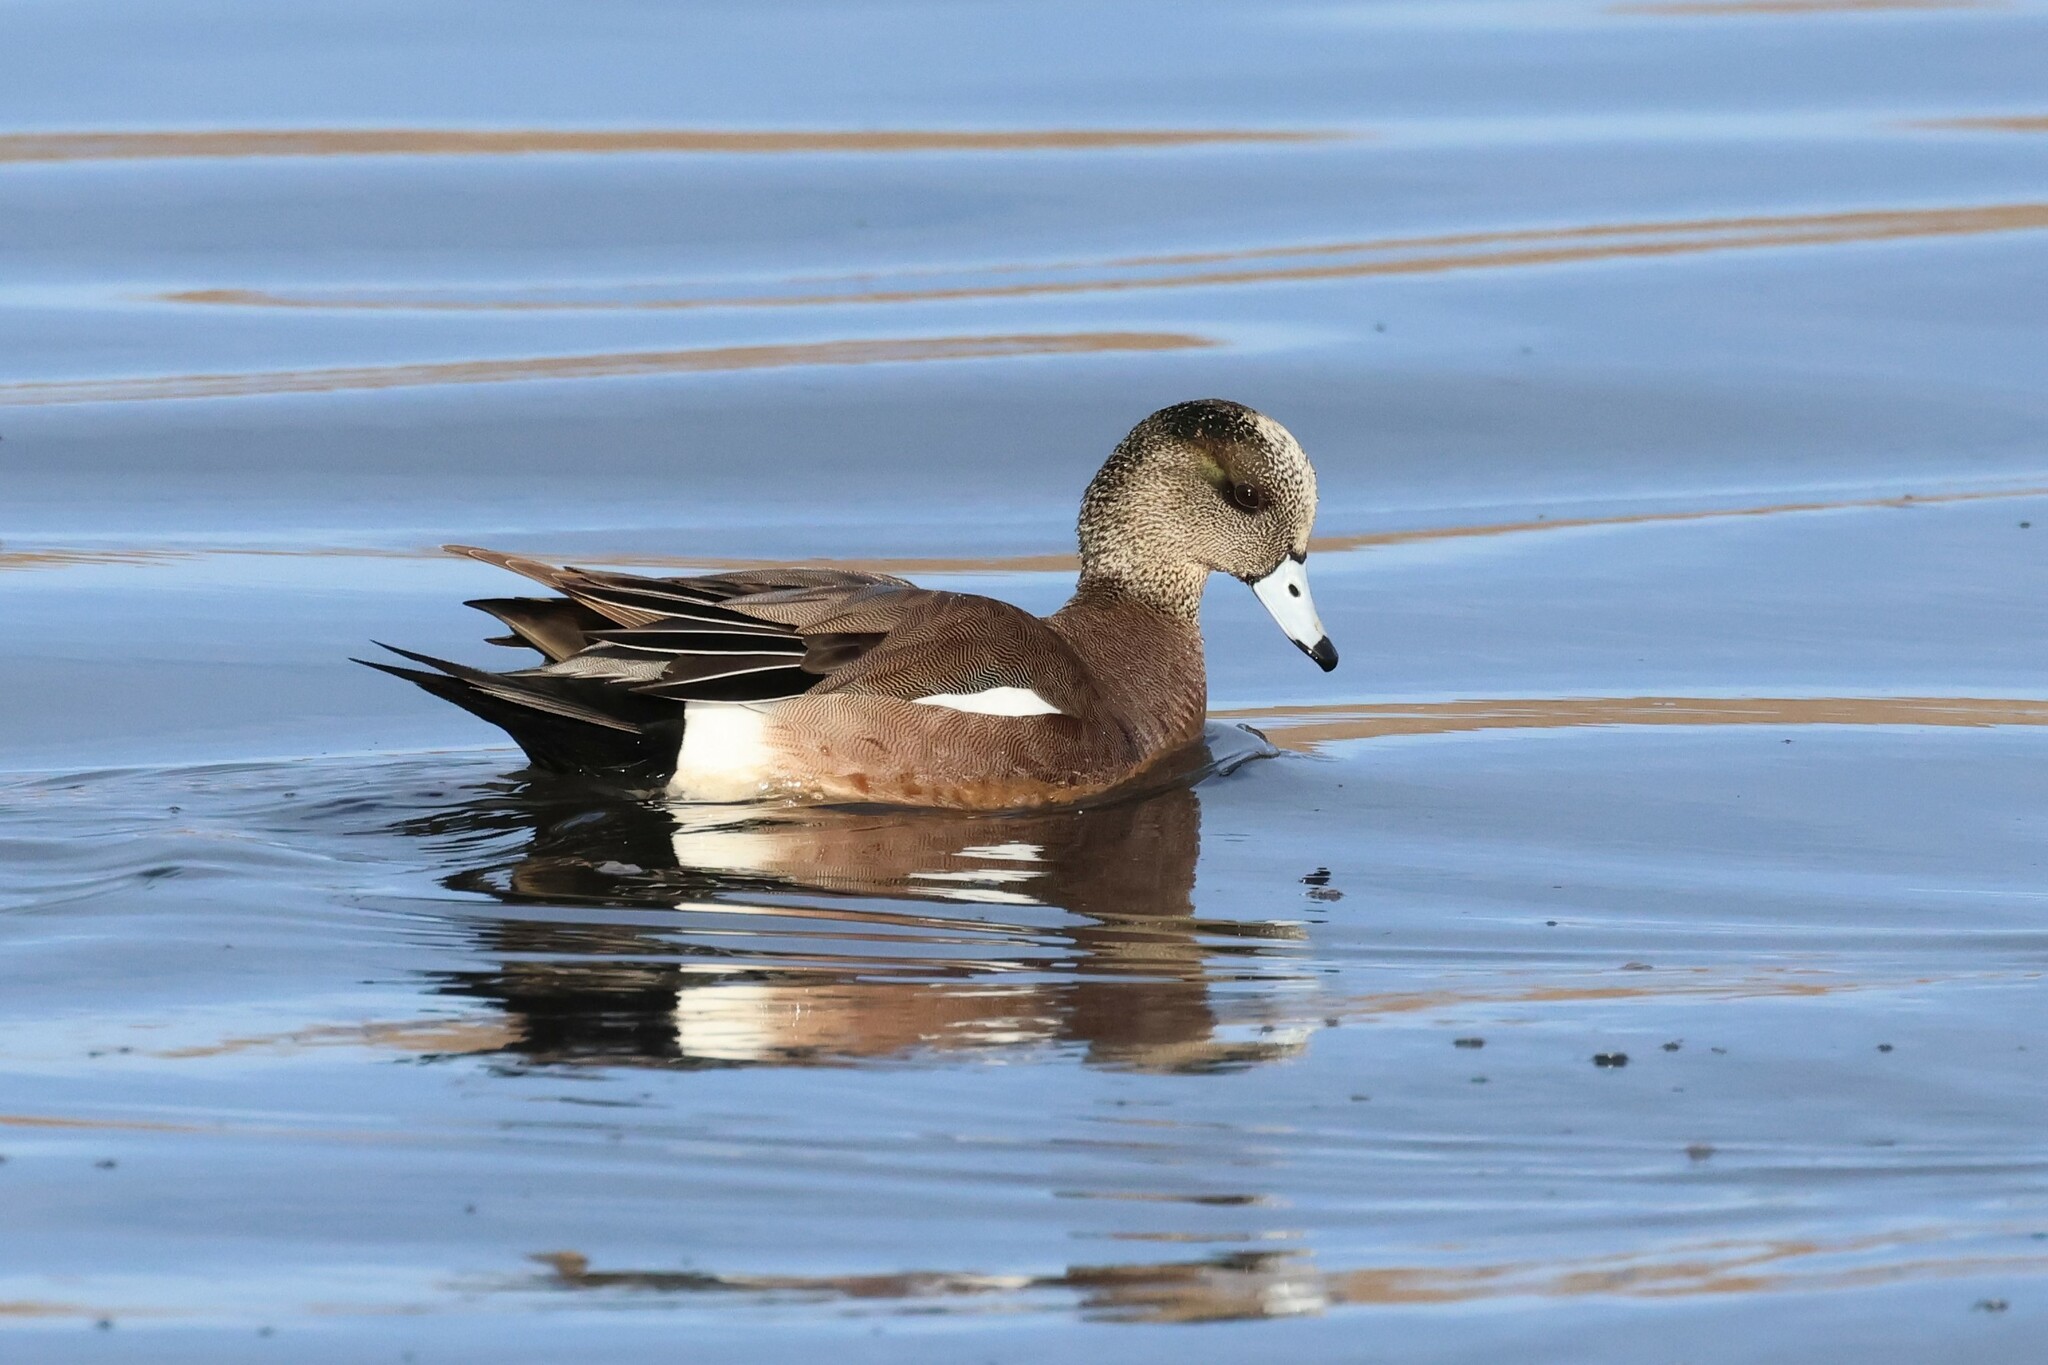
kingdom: Animalia
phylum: Chordata
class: Aves
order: Anseriformes
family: Anatidae
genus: Mareca
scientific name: Mareca americana
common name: American wigeon
